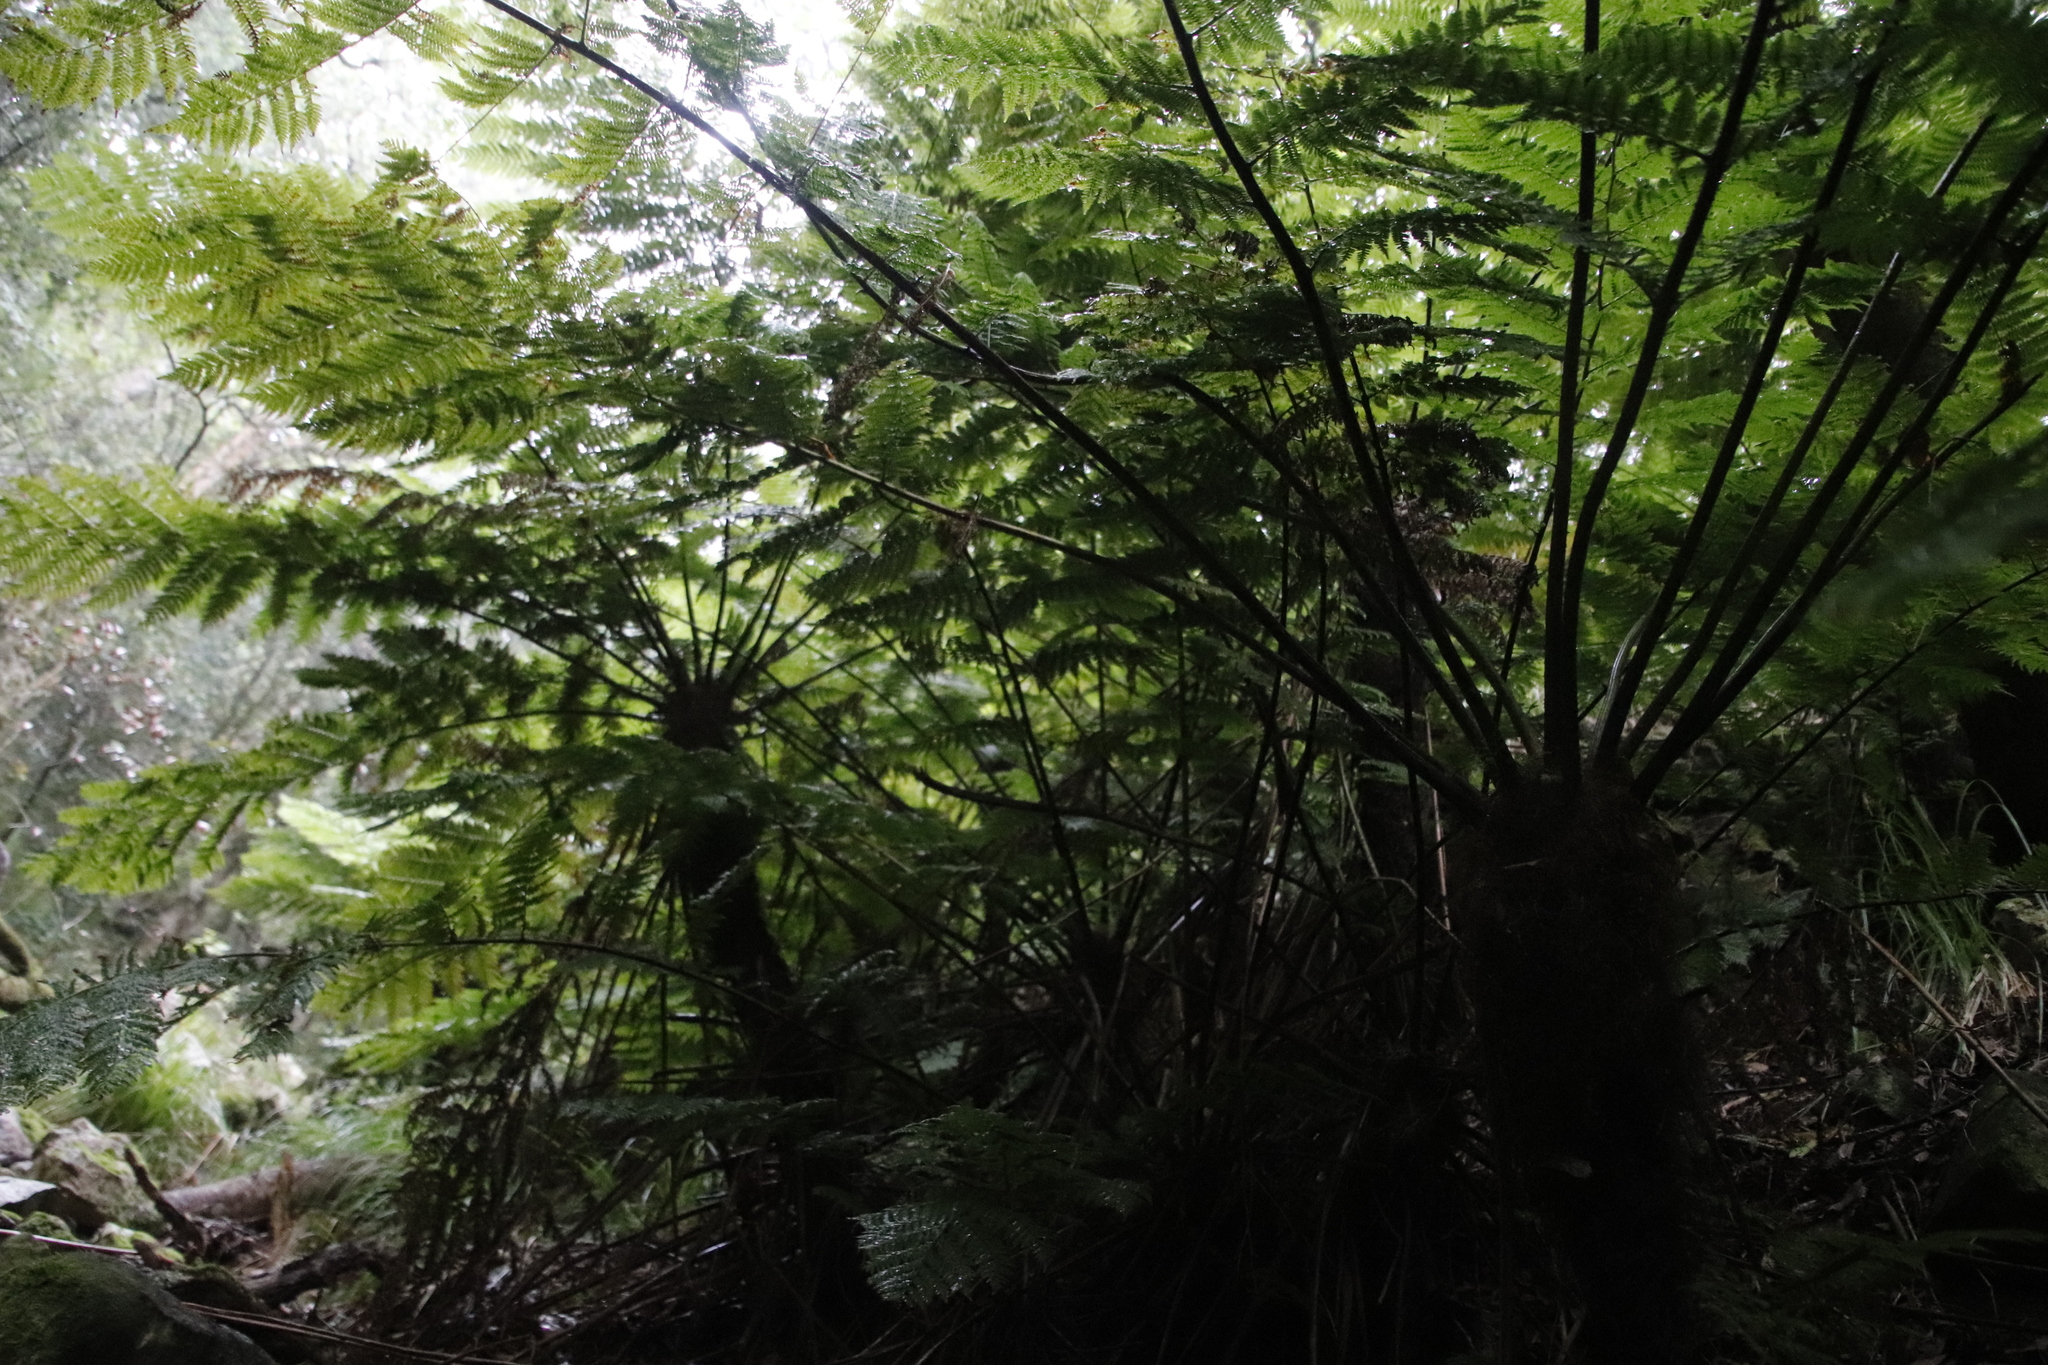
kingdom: Plantae
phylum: Tracheophyta
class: Polypodiopsida
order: Cyatheales
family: Cyatheaceae
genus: Gymnosphaera
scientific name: Gymnosphaera capensis
